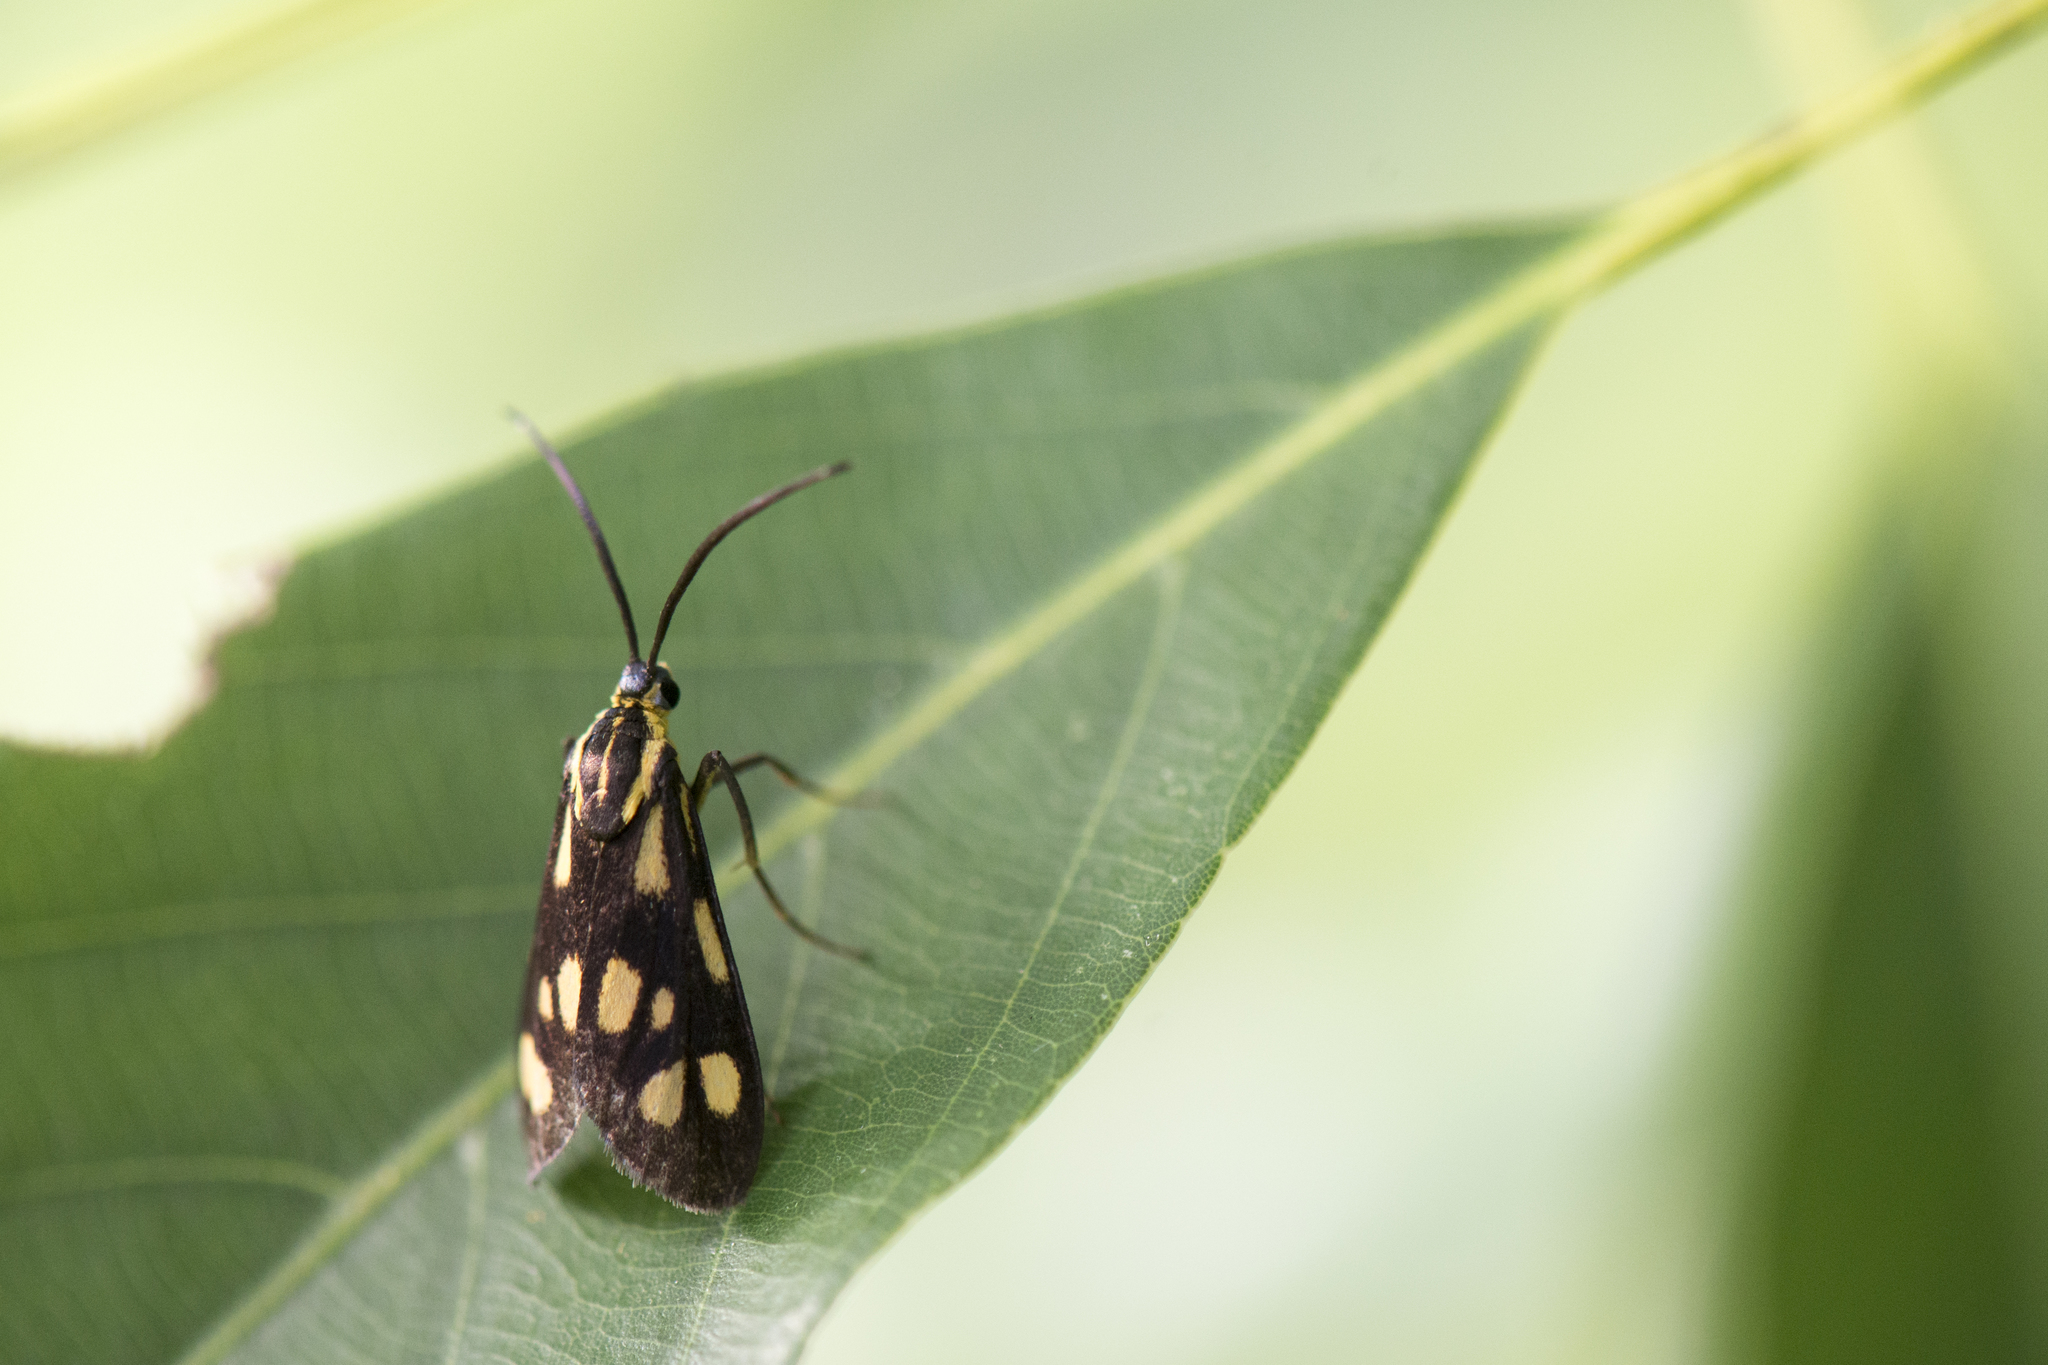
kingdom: Animalia
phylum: Arthropoda
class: Insecta
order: Lepidoptera
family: Zygaenidae
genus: Artona
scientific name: Artona
